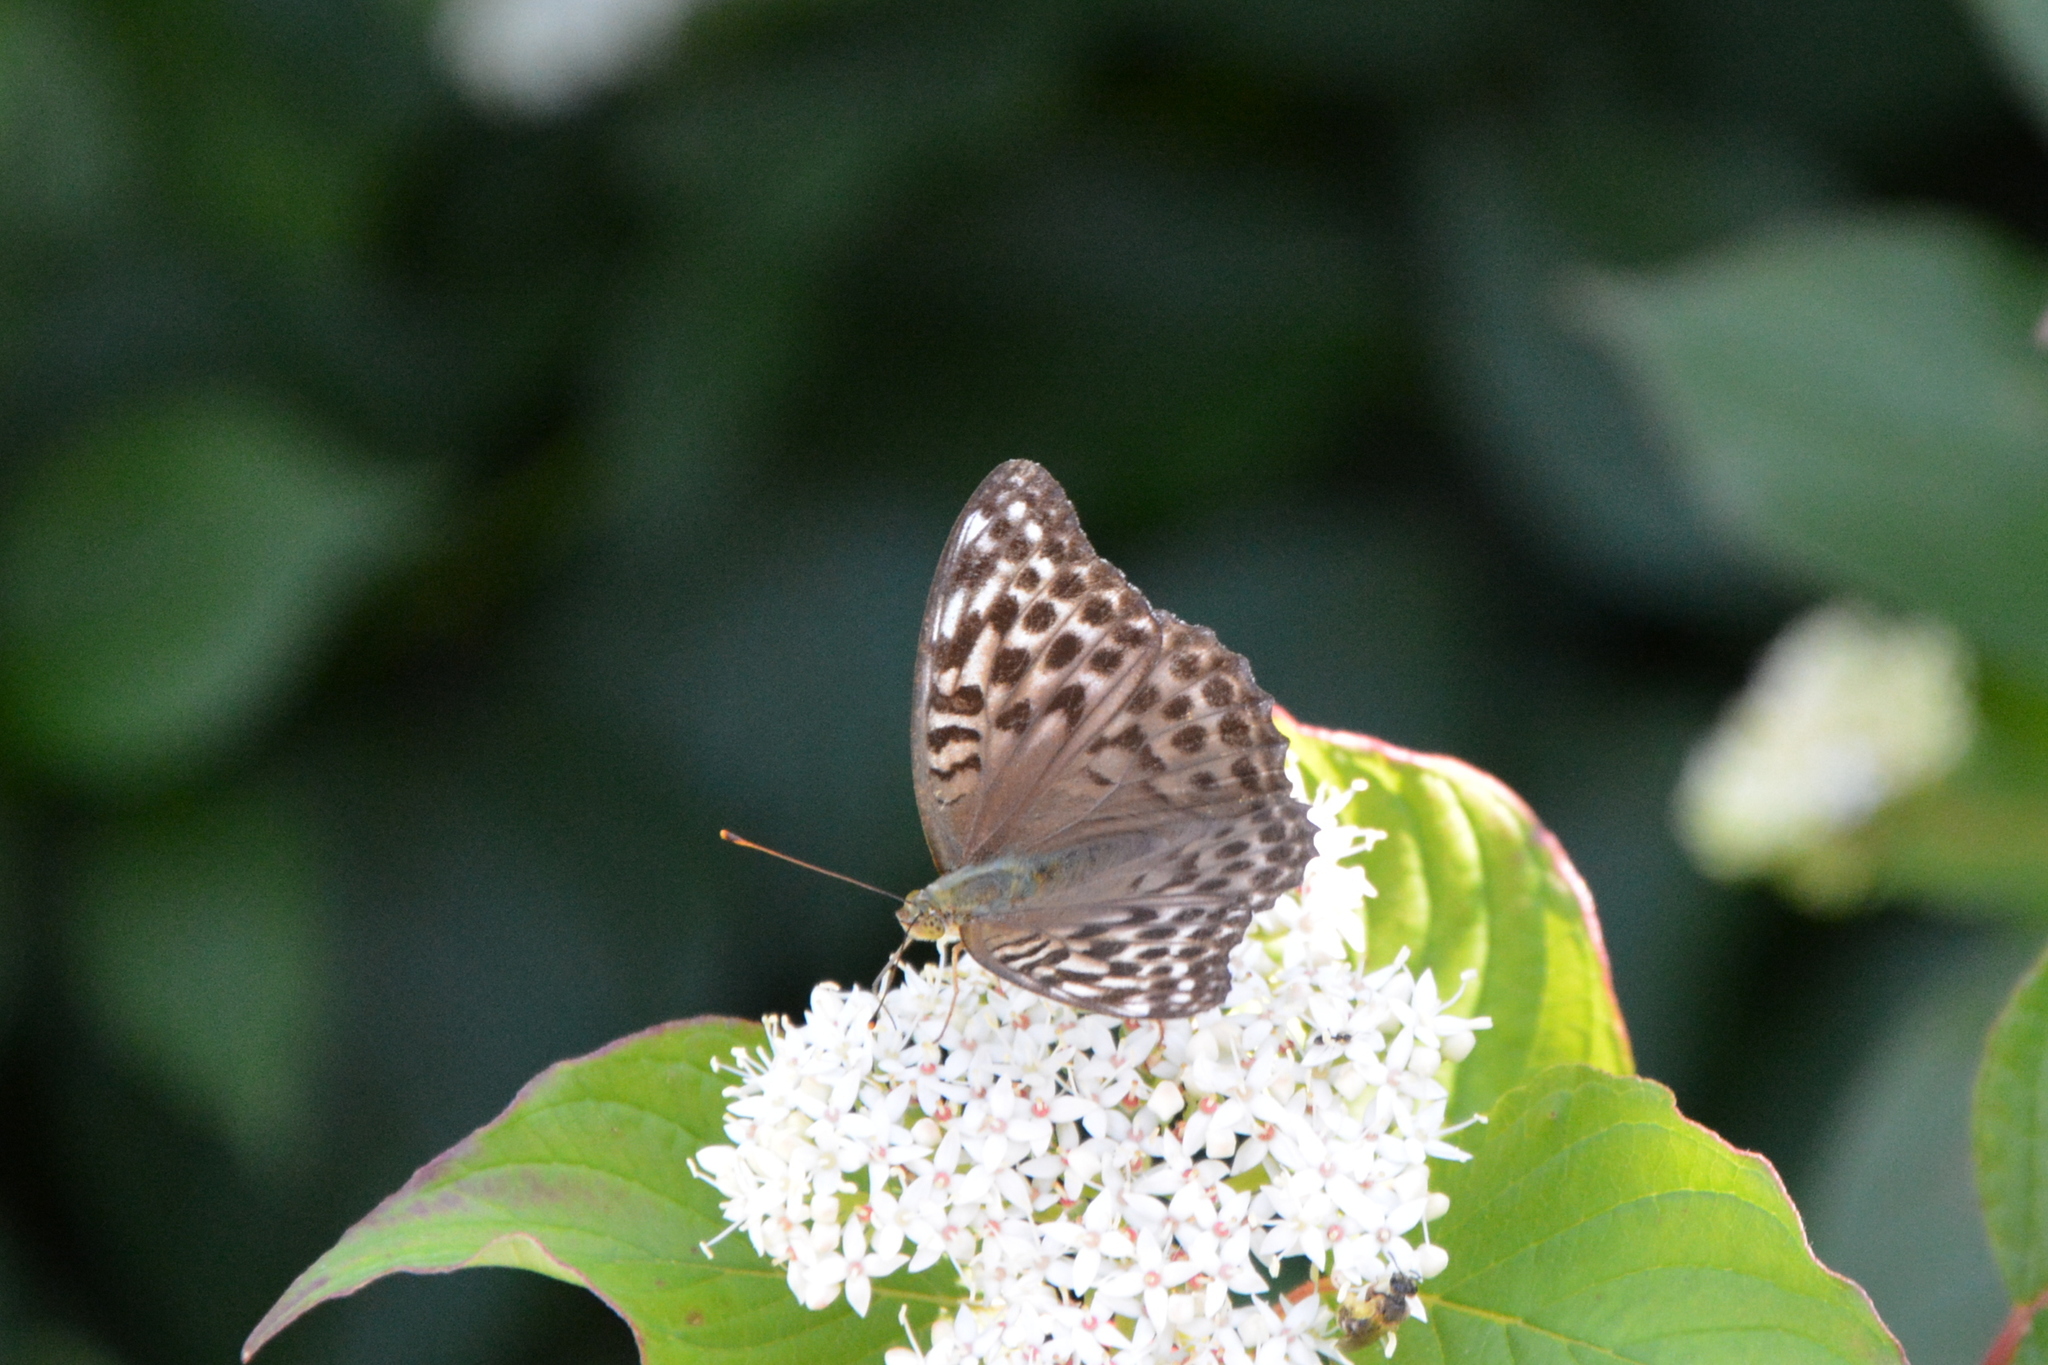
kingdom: Animalia
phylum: Arthropoda
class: Insecta
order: Lepidoptera
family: Nymphalidae
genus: Argynnis
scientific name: Argynnis paphia
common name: Silver-washed fritillary
